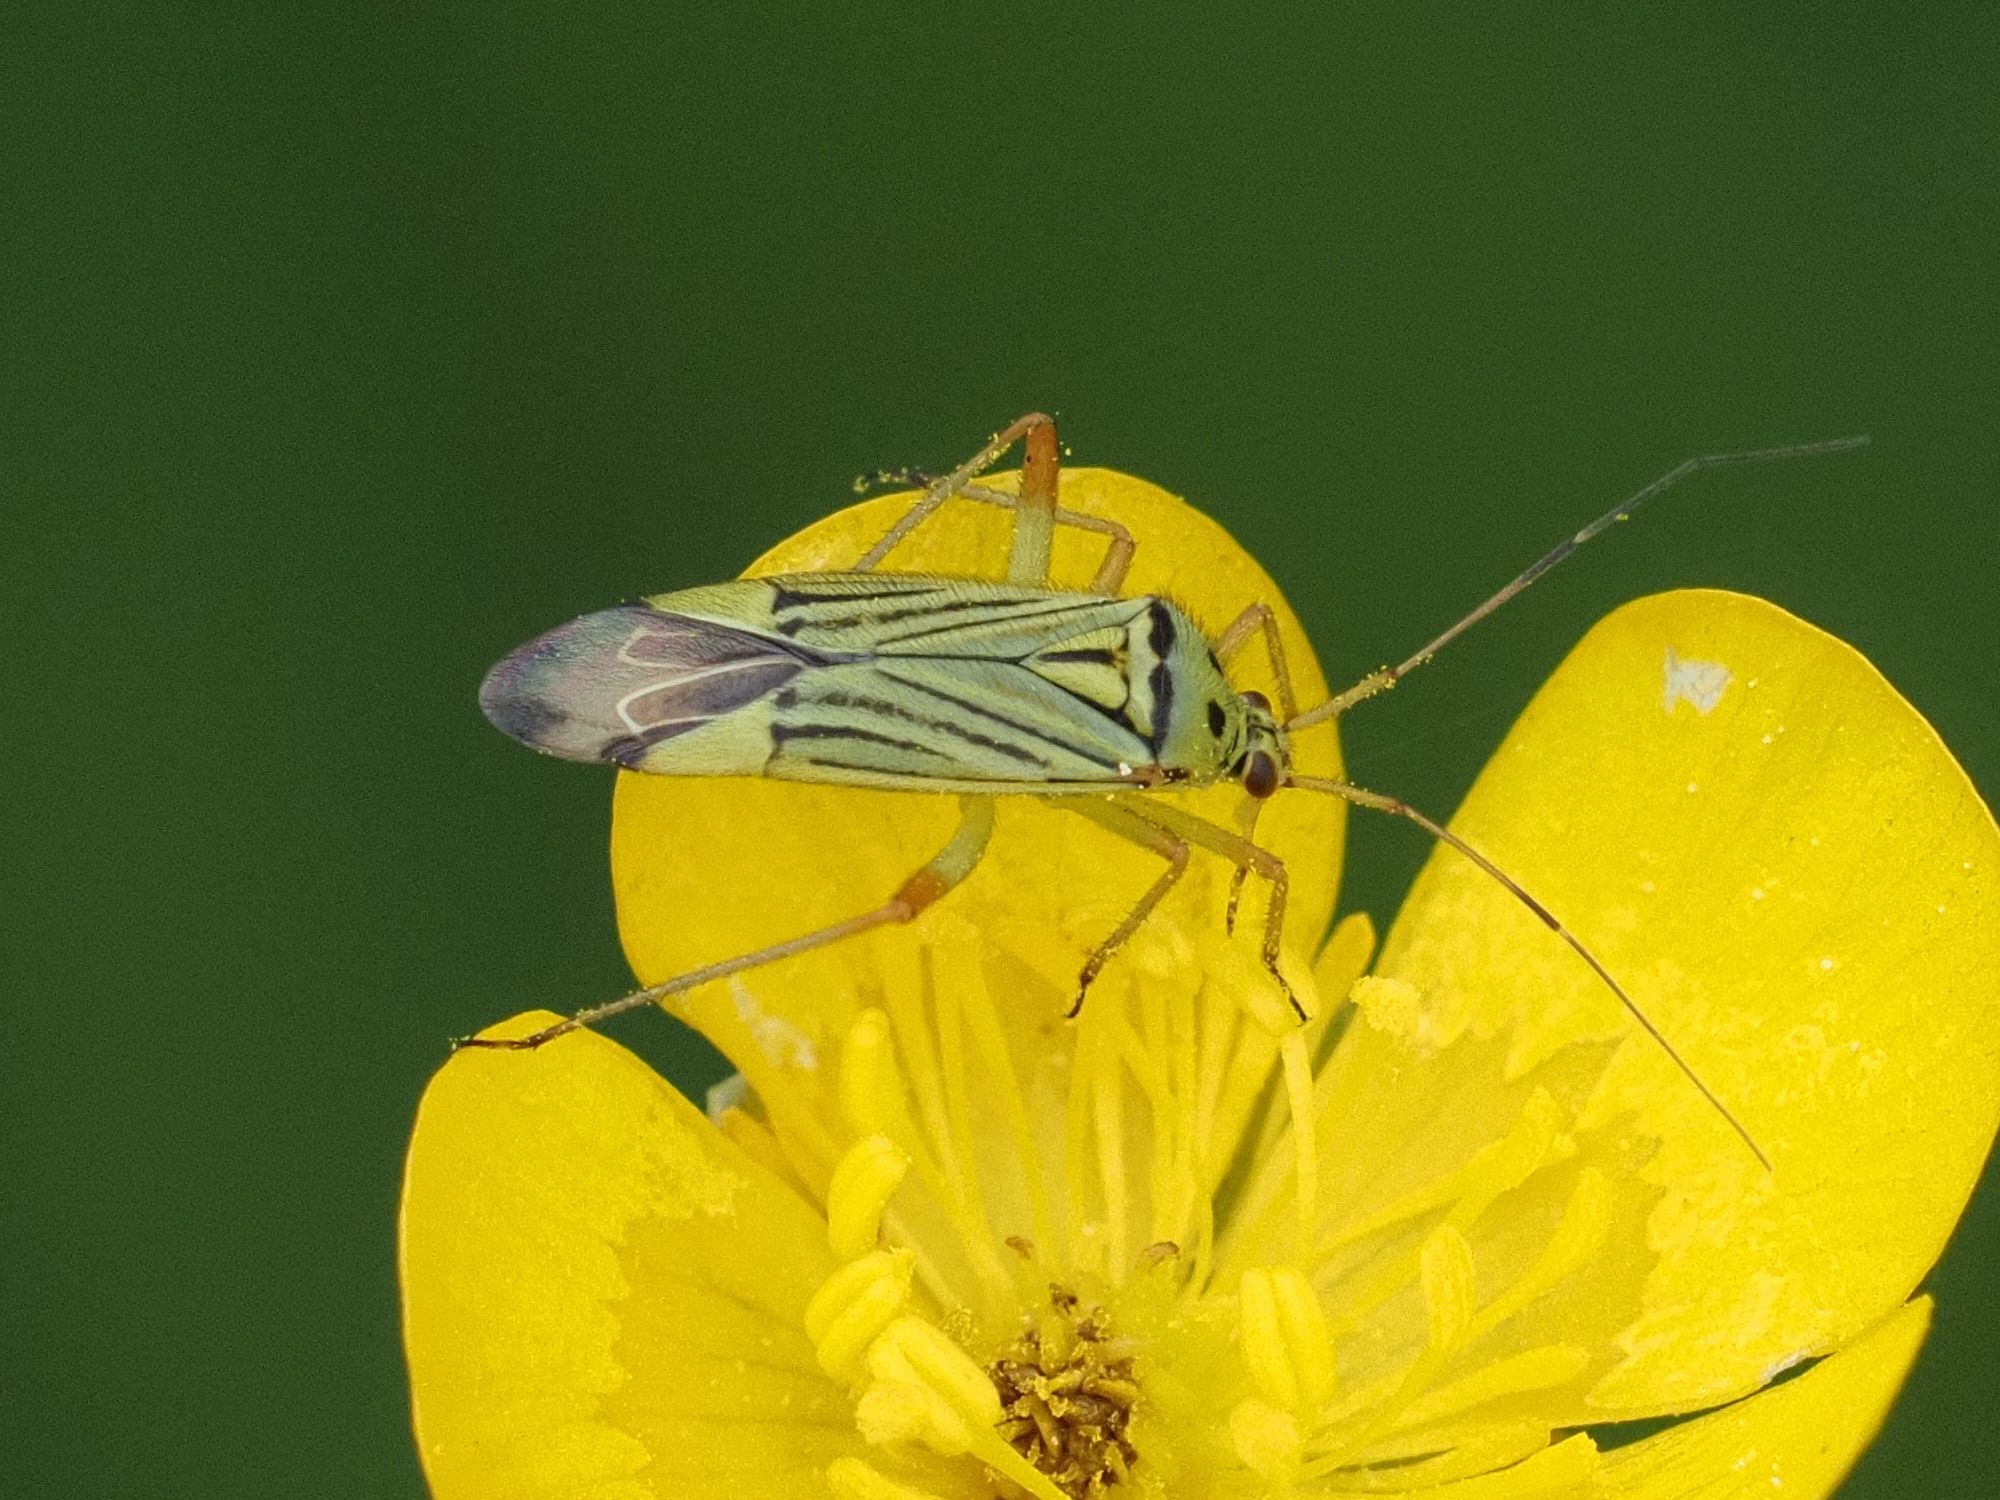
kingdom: Animalia
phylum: Arthropoda
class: Insecta
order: Hemiptera
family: Miridae
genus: Mermitelocerus
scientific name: Mermitelocerus schmidtii
